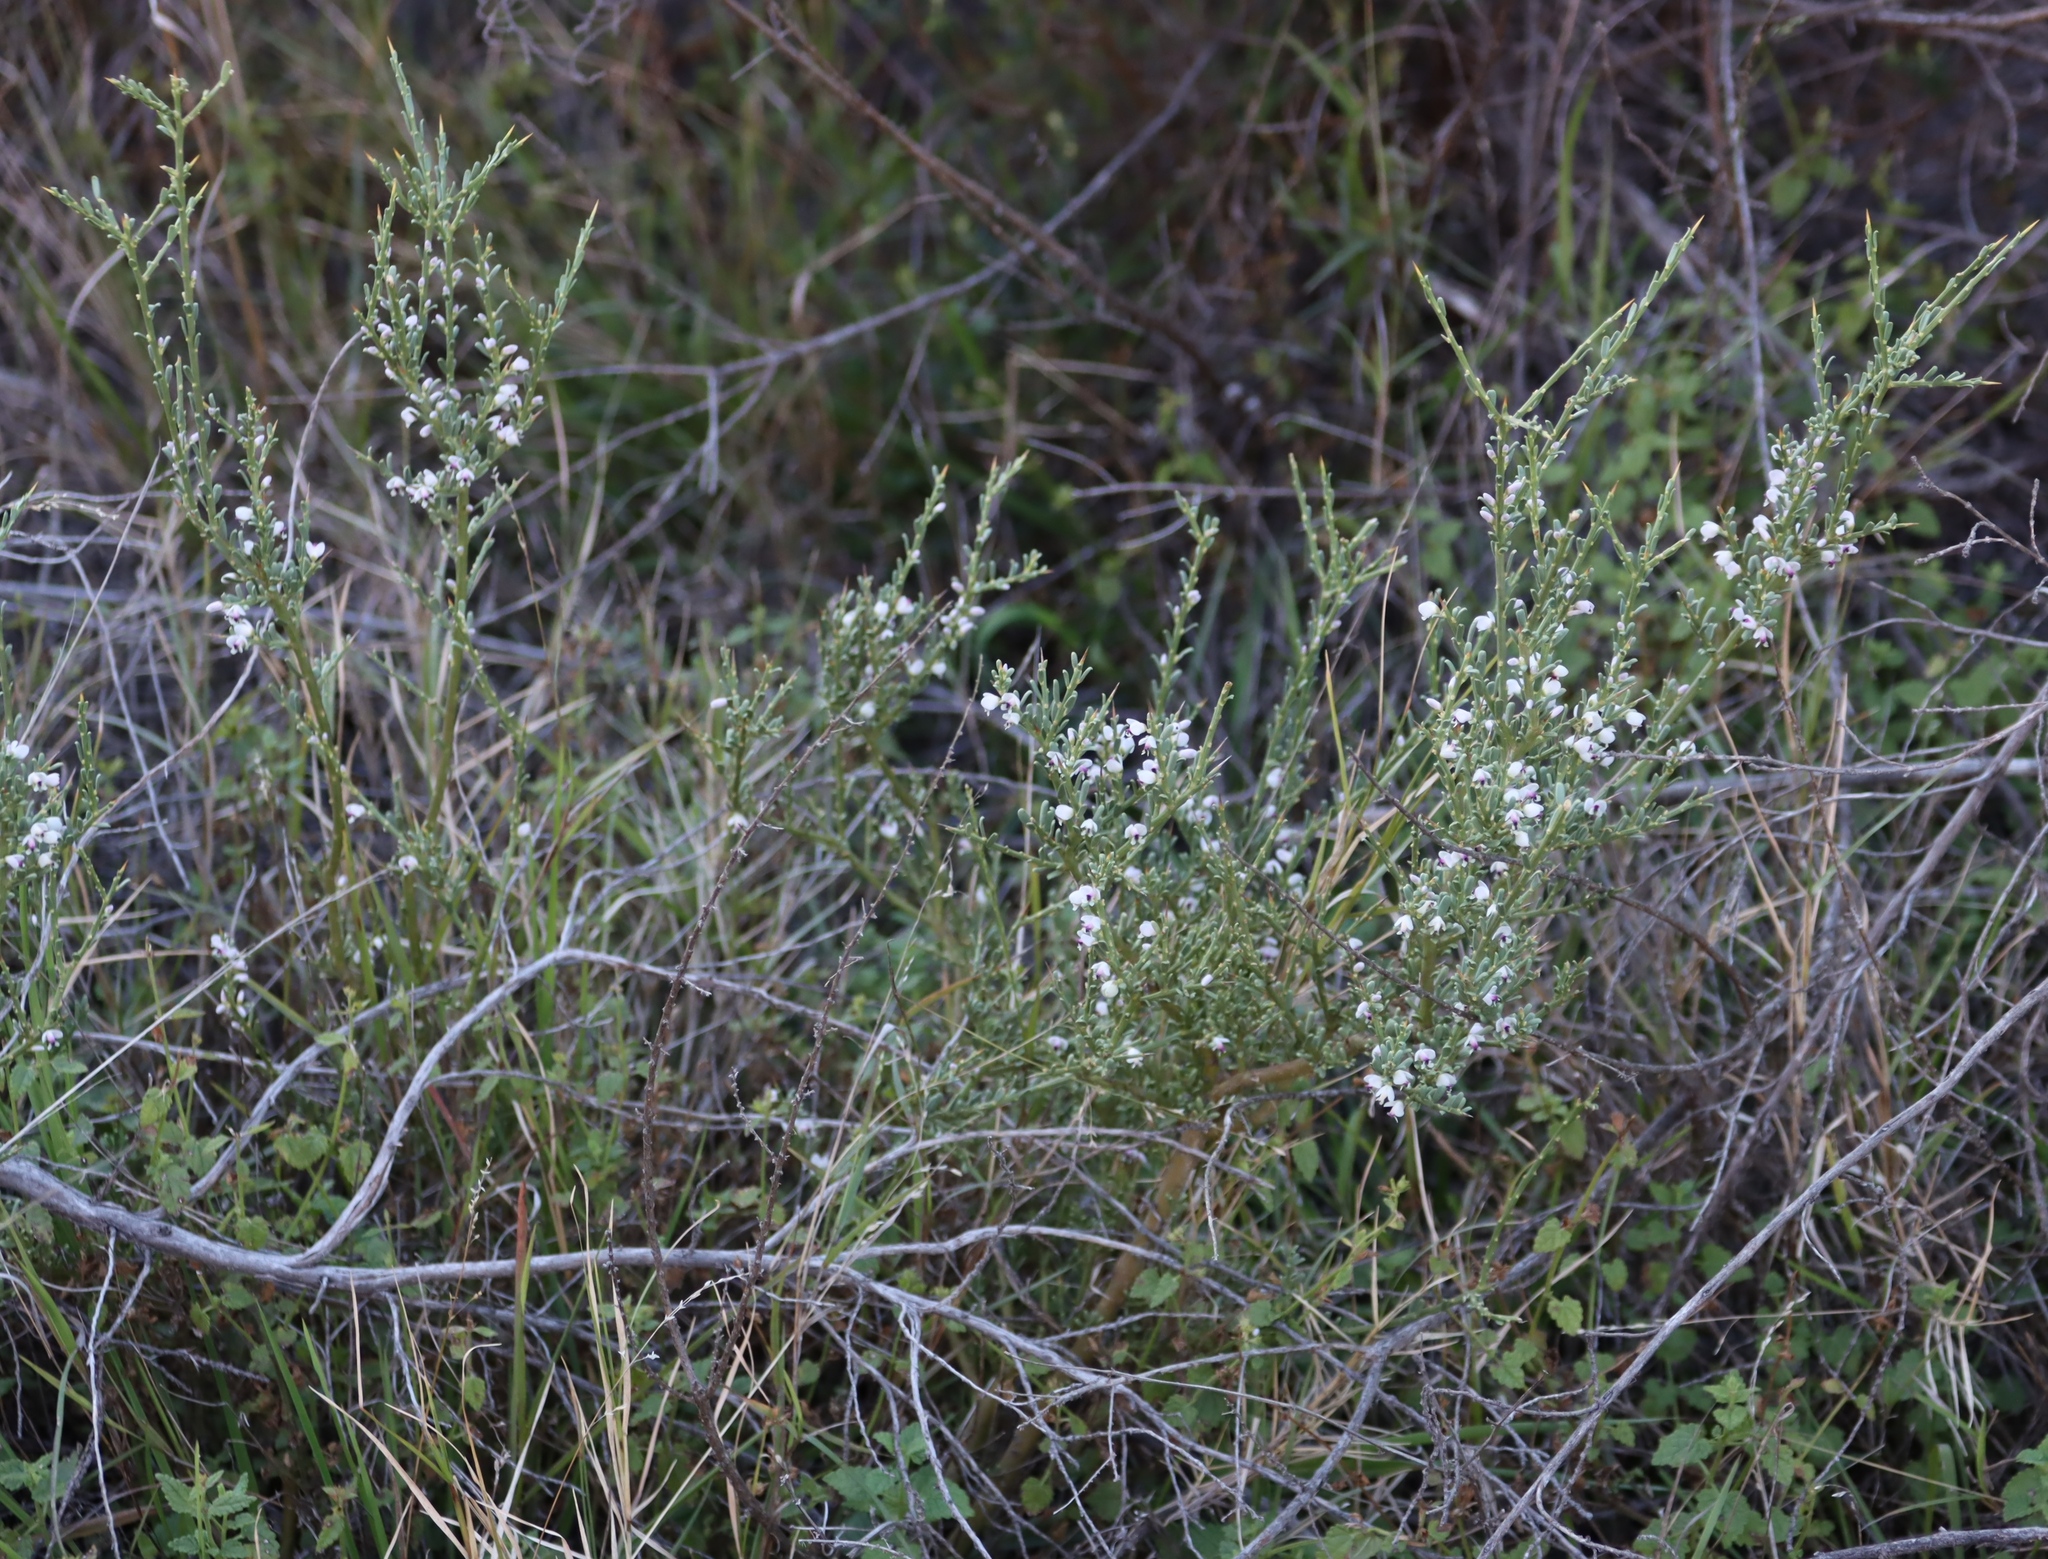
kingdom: Plantae
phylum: Tracheophyta
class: Magnoliopsida
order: Fabales
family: Polygalaceae
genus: Muraltia
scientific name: Muraltia spinosa
